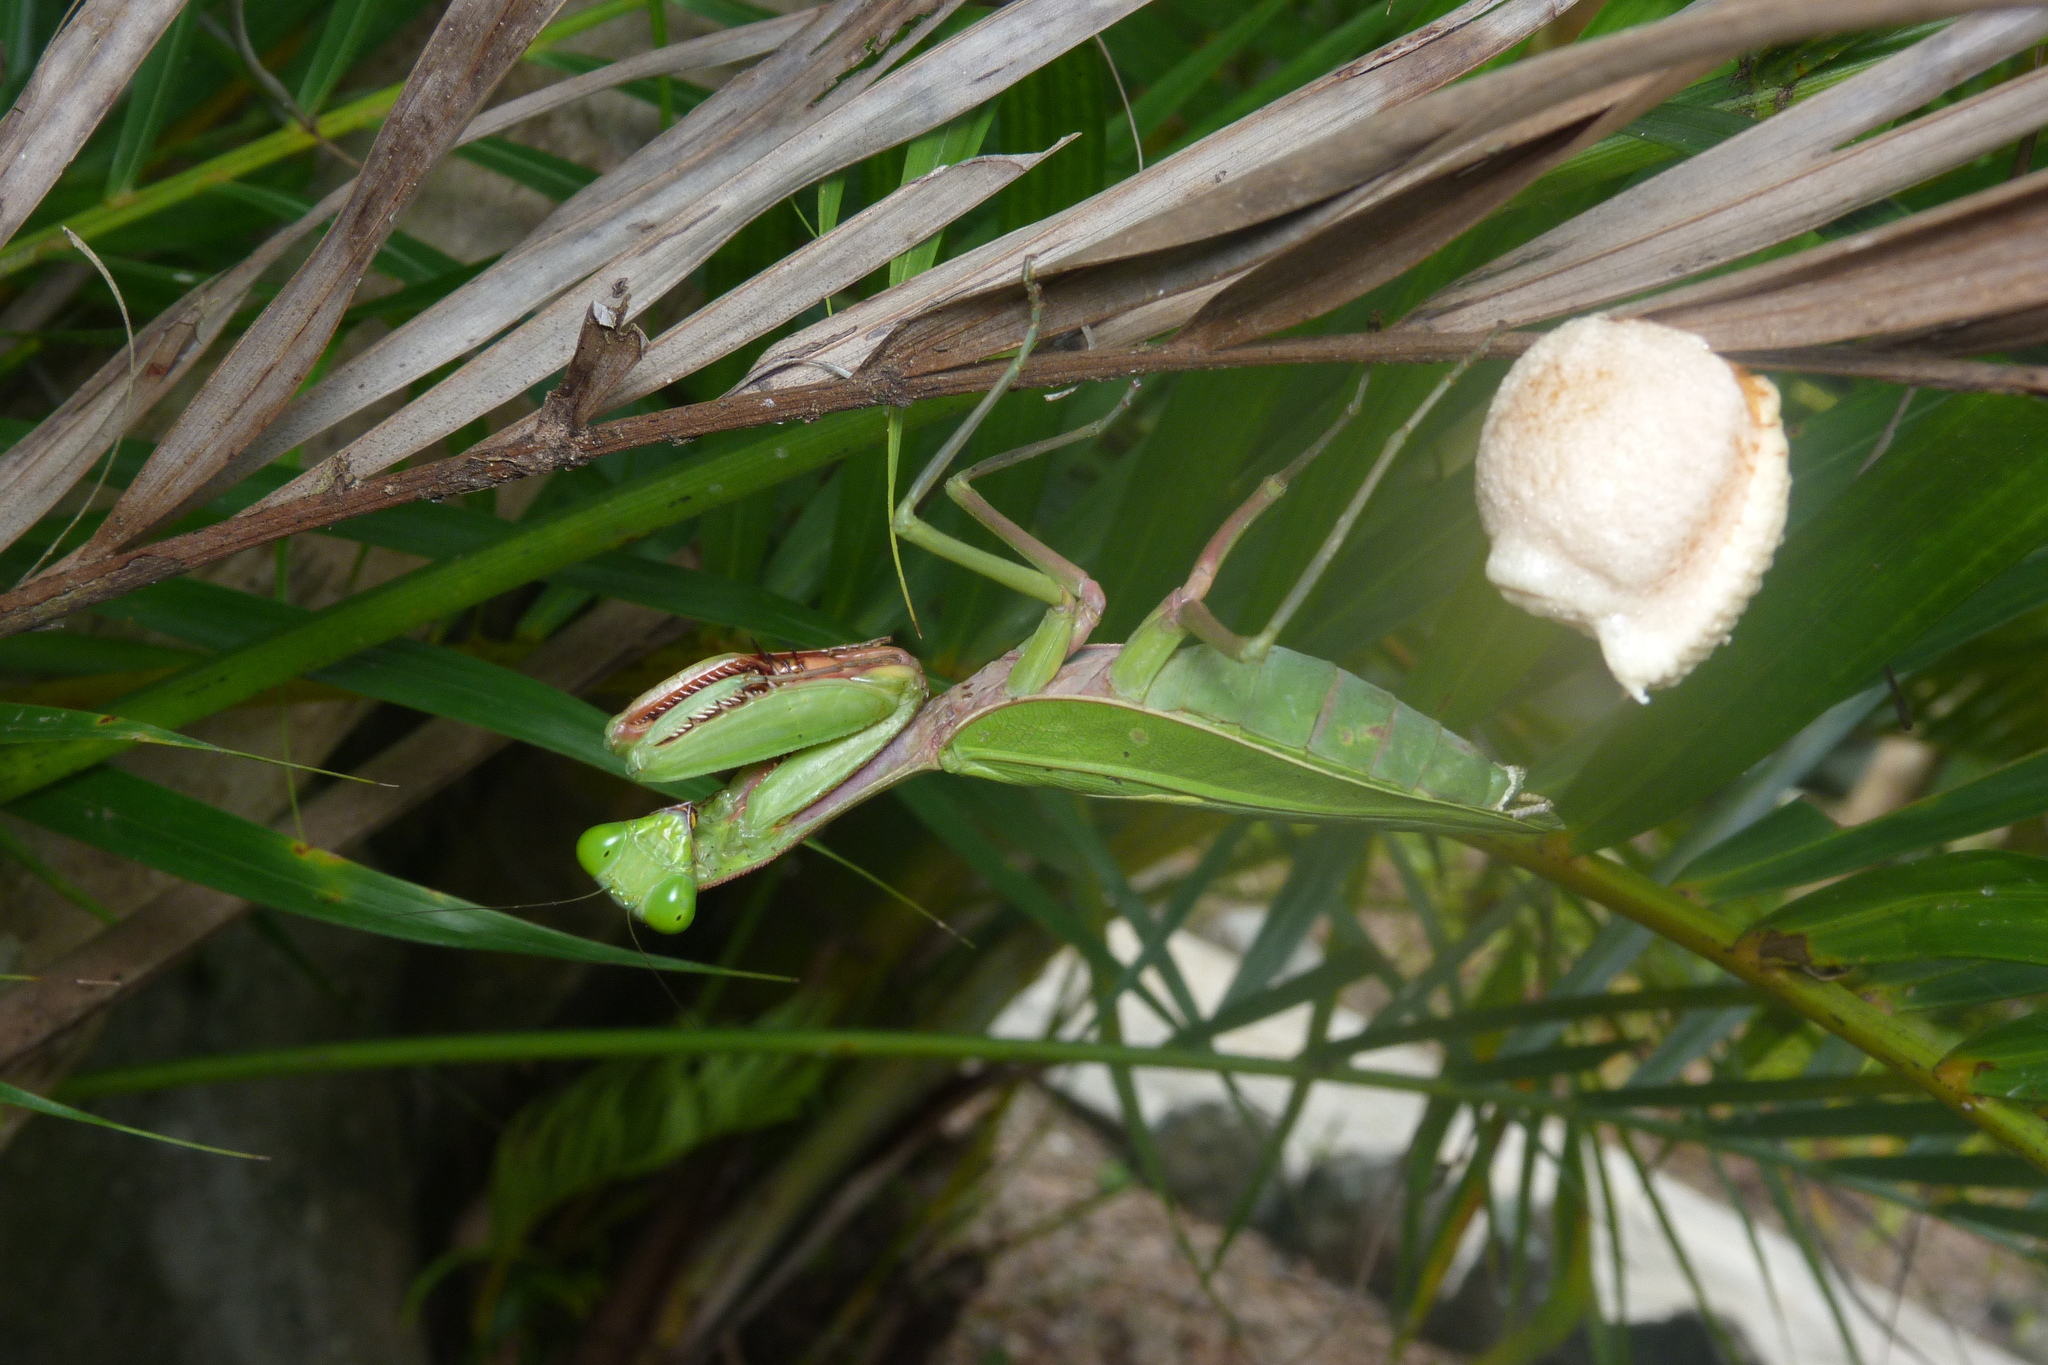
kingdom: Animalia
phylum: Arthropoda
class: Insecta
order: Mantodea
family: Mantidae
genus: Hierodula
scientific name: Hierodula majuscula
